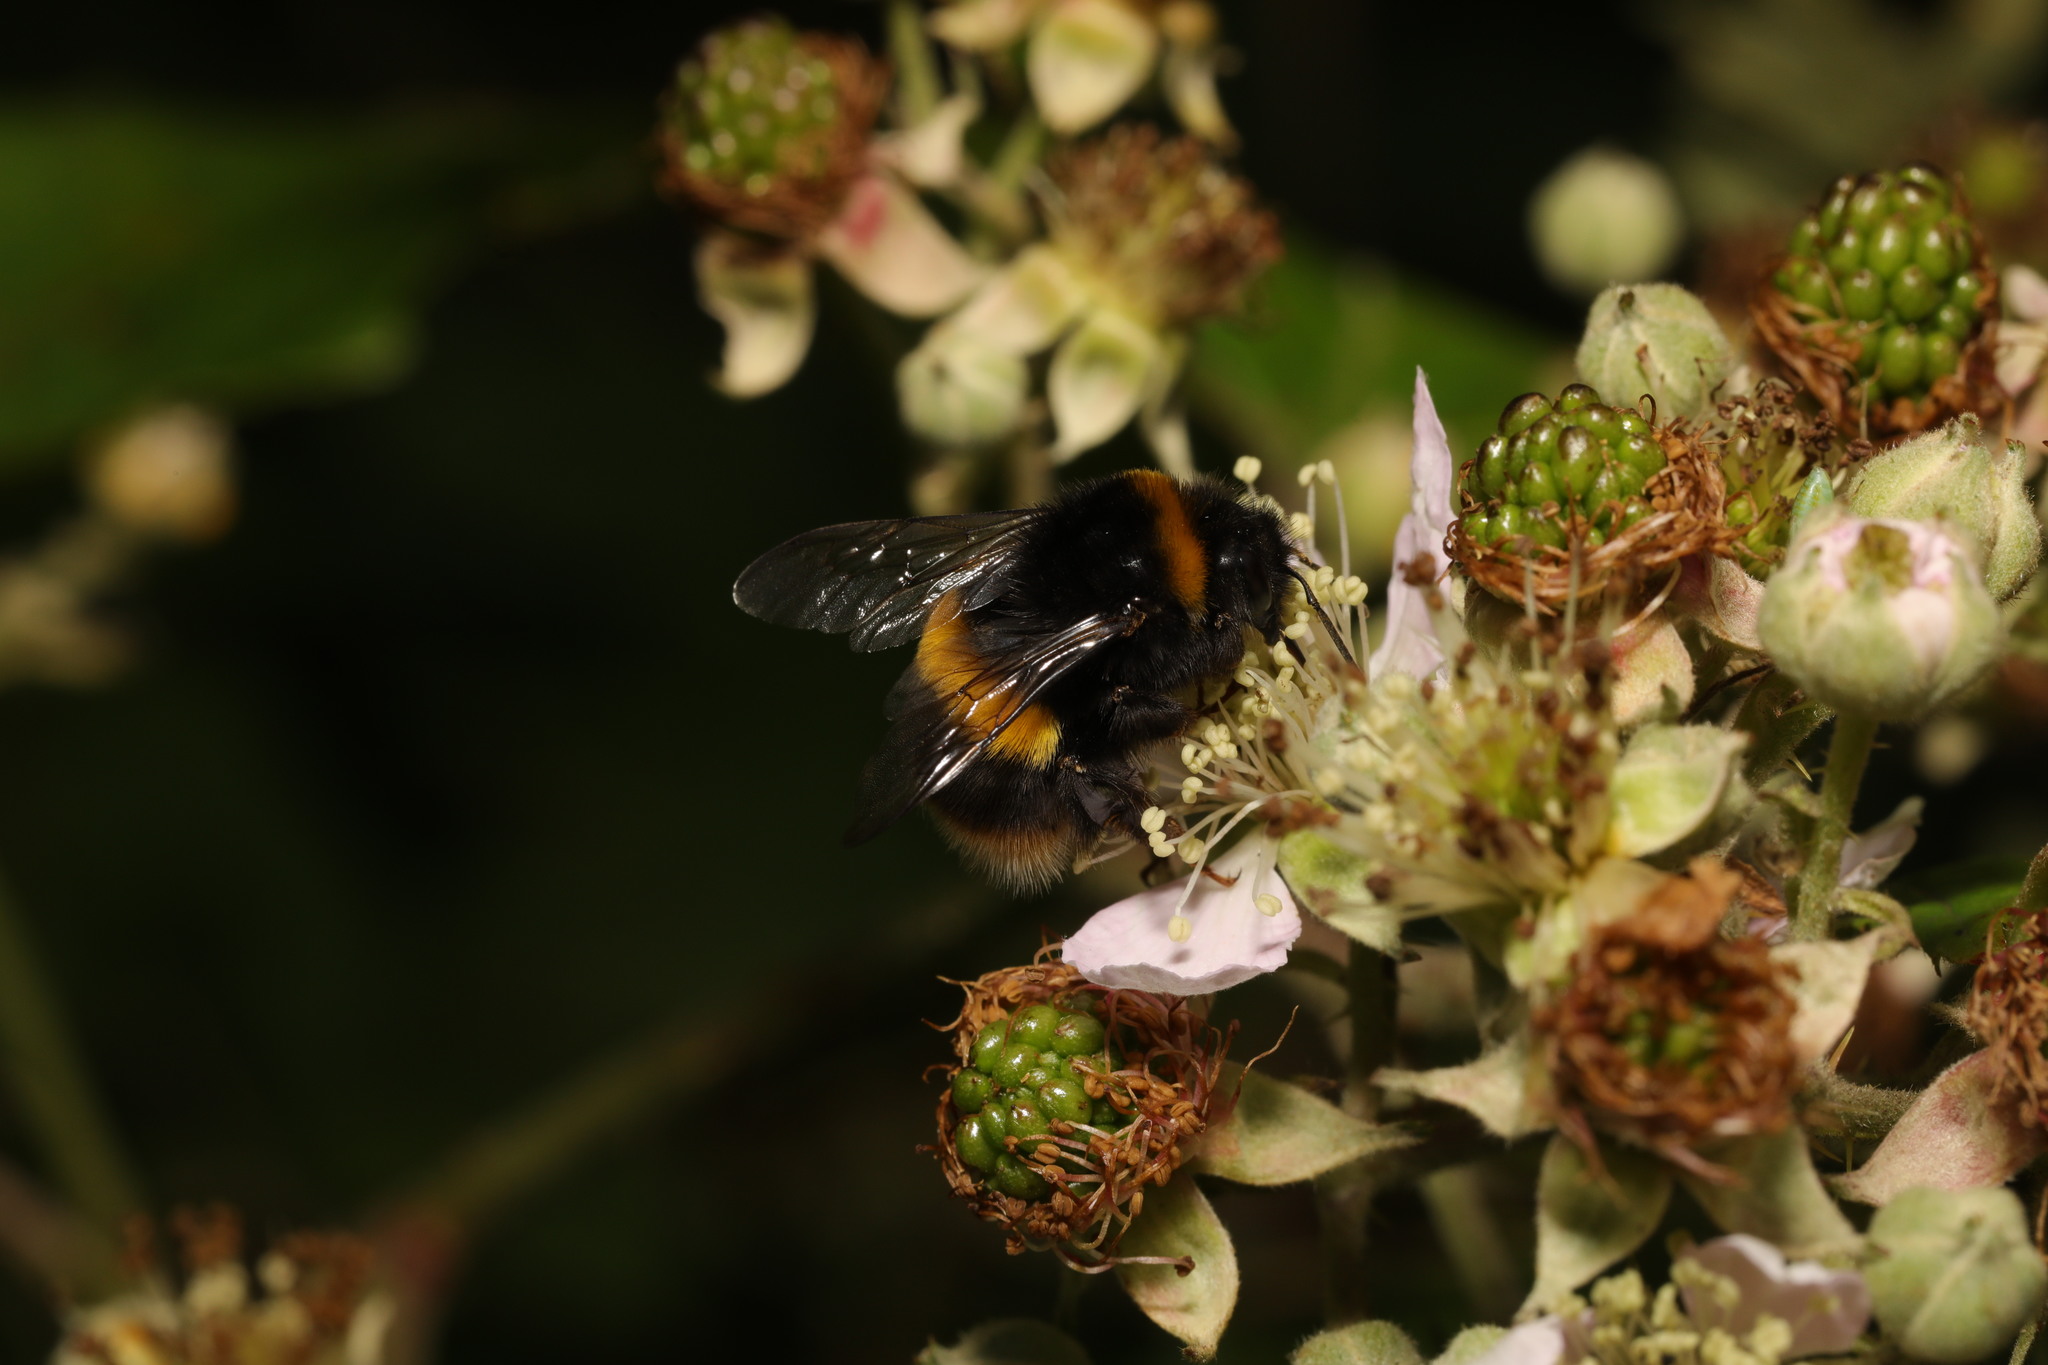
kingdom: Animalia
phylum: Arthropoda
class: Insecta
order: Hymenoptera
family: Apidae
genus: Bombus
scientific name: Bombus terrestris
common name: Buff-tailed bumblebee
